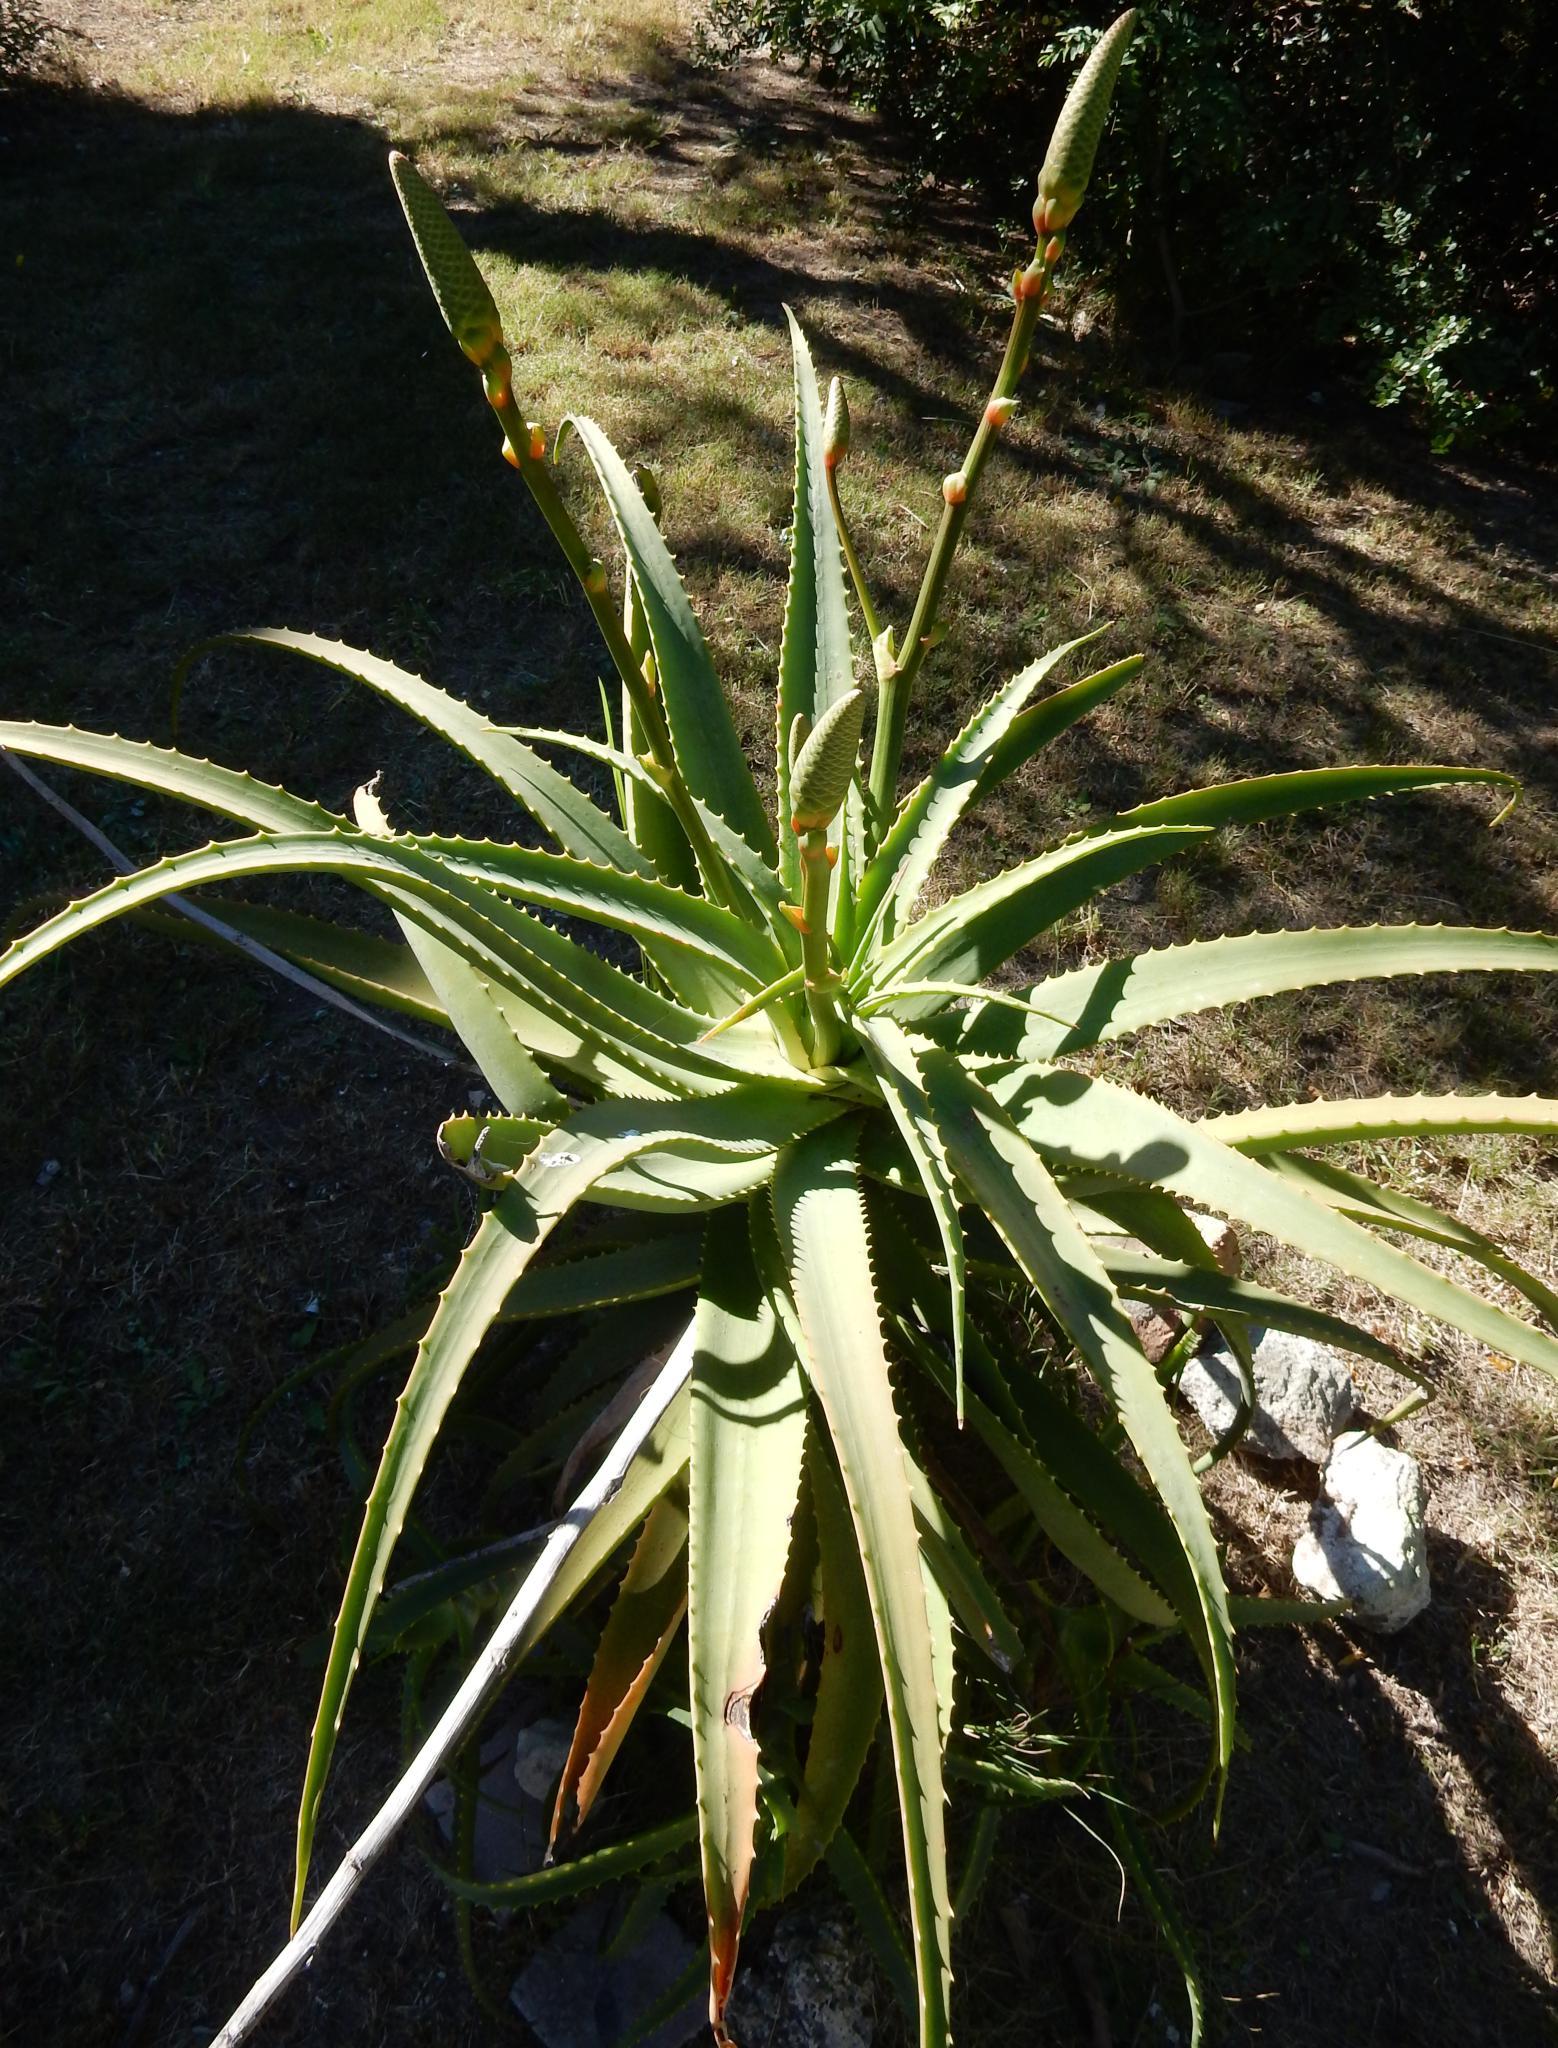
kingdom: Plantae
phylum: Tracheophyta
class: Liliopsida
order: Asparagales
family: Asphodelaceae
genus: Aloe
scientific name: Aloe arborescens
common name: Candelabra aloe
